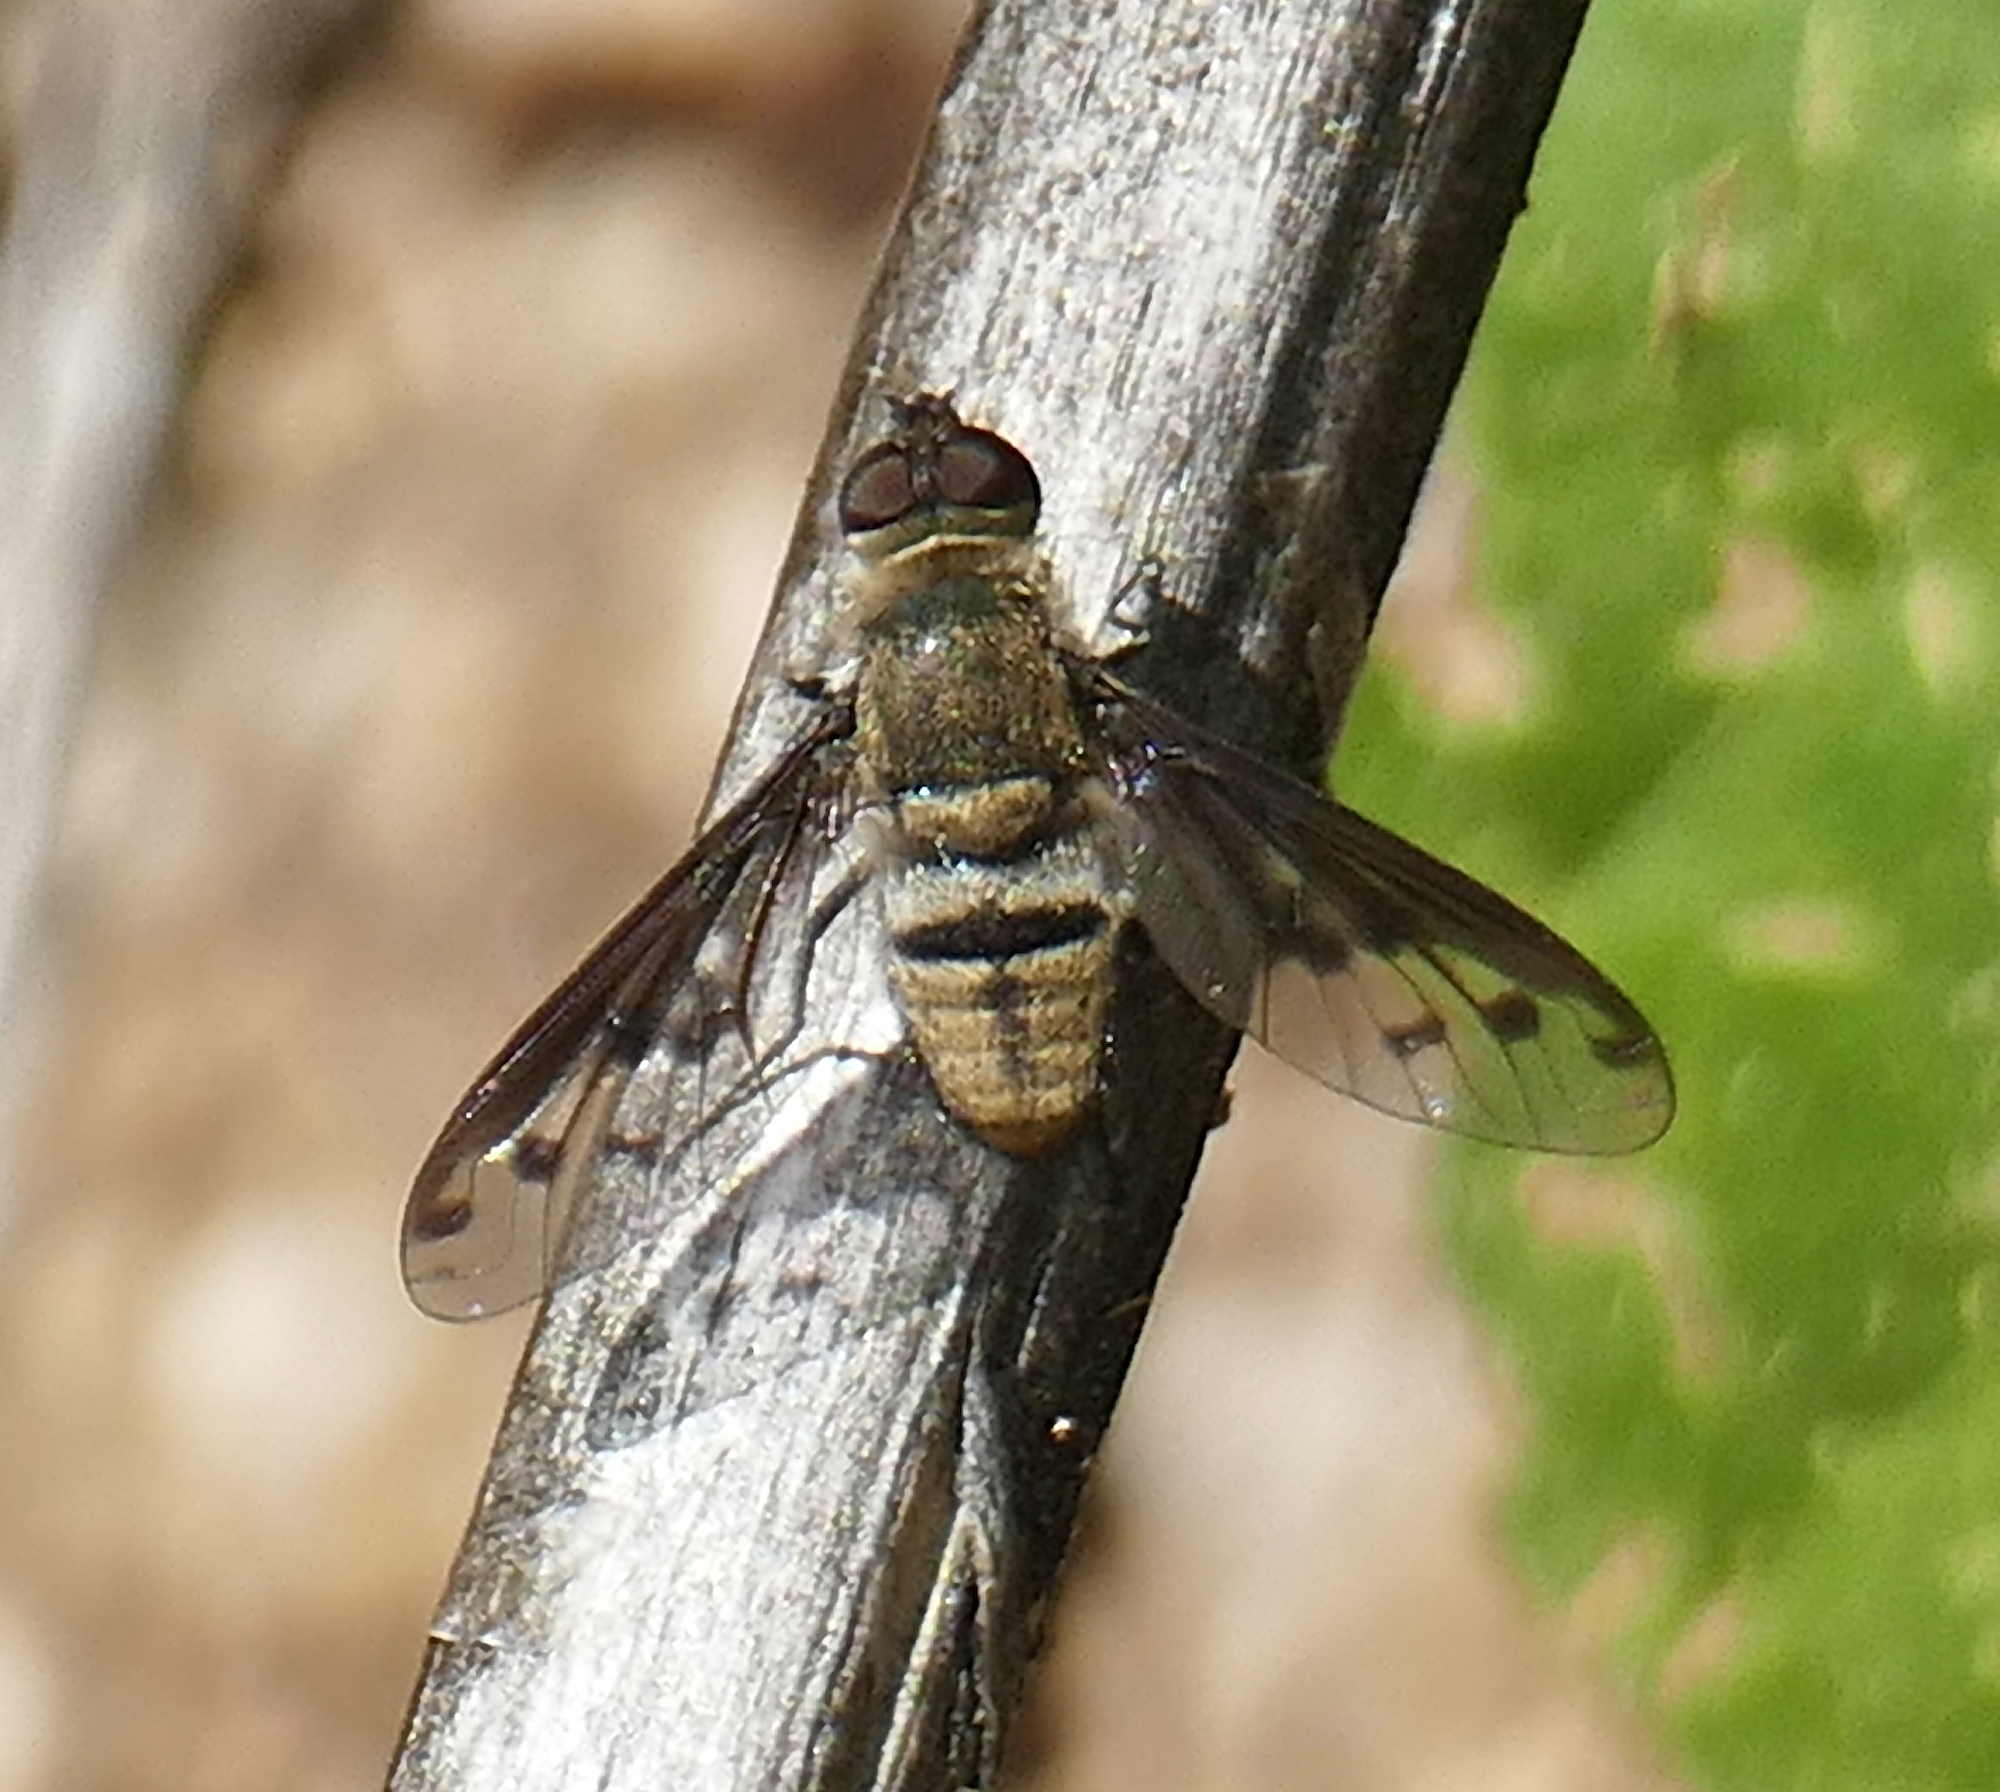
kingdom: Animalia
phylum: Arthropoda
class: Insecta
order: Diptera
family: Bombyliidae
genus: Neodiplocampta
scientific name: Neodiplocampta astrella
